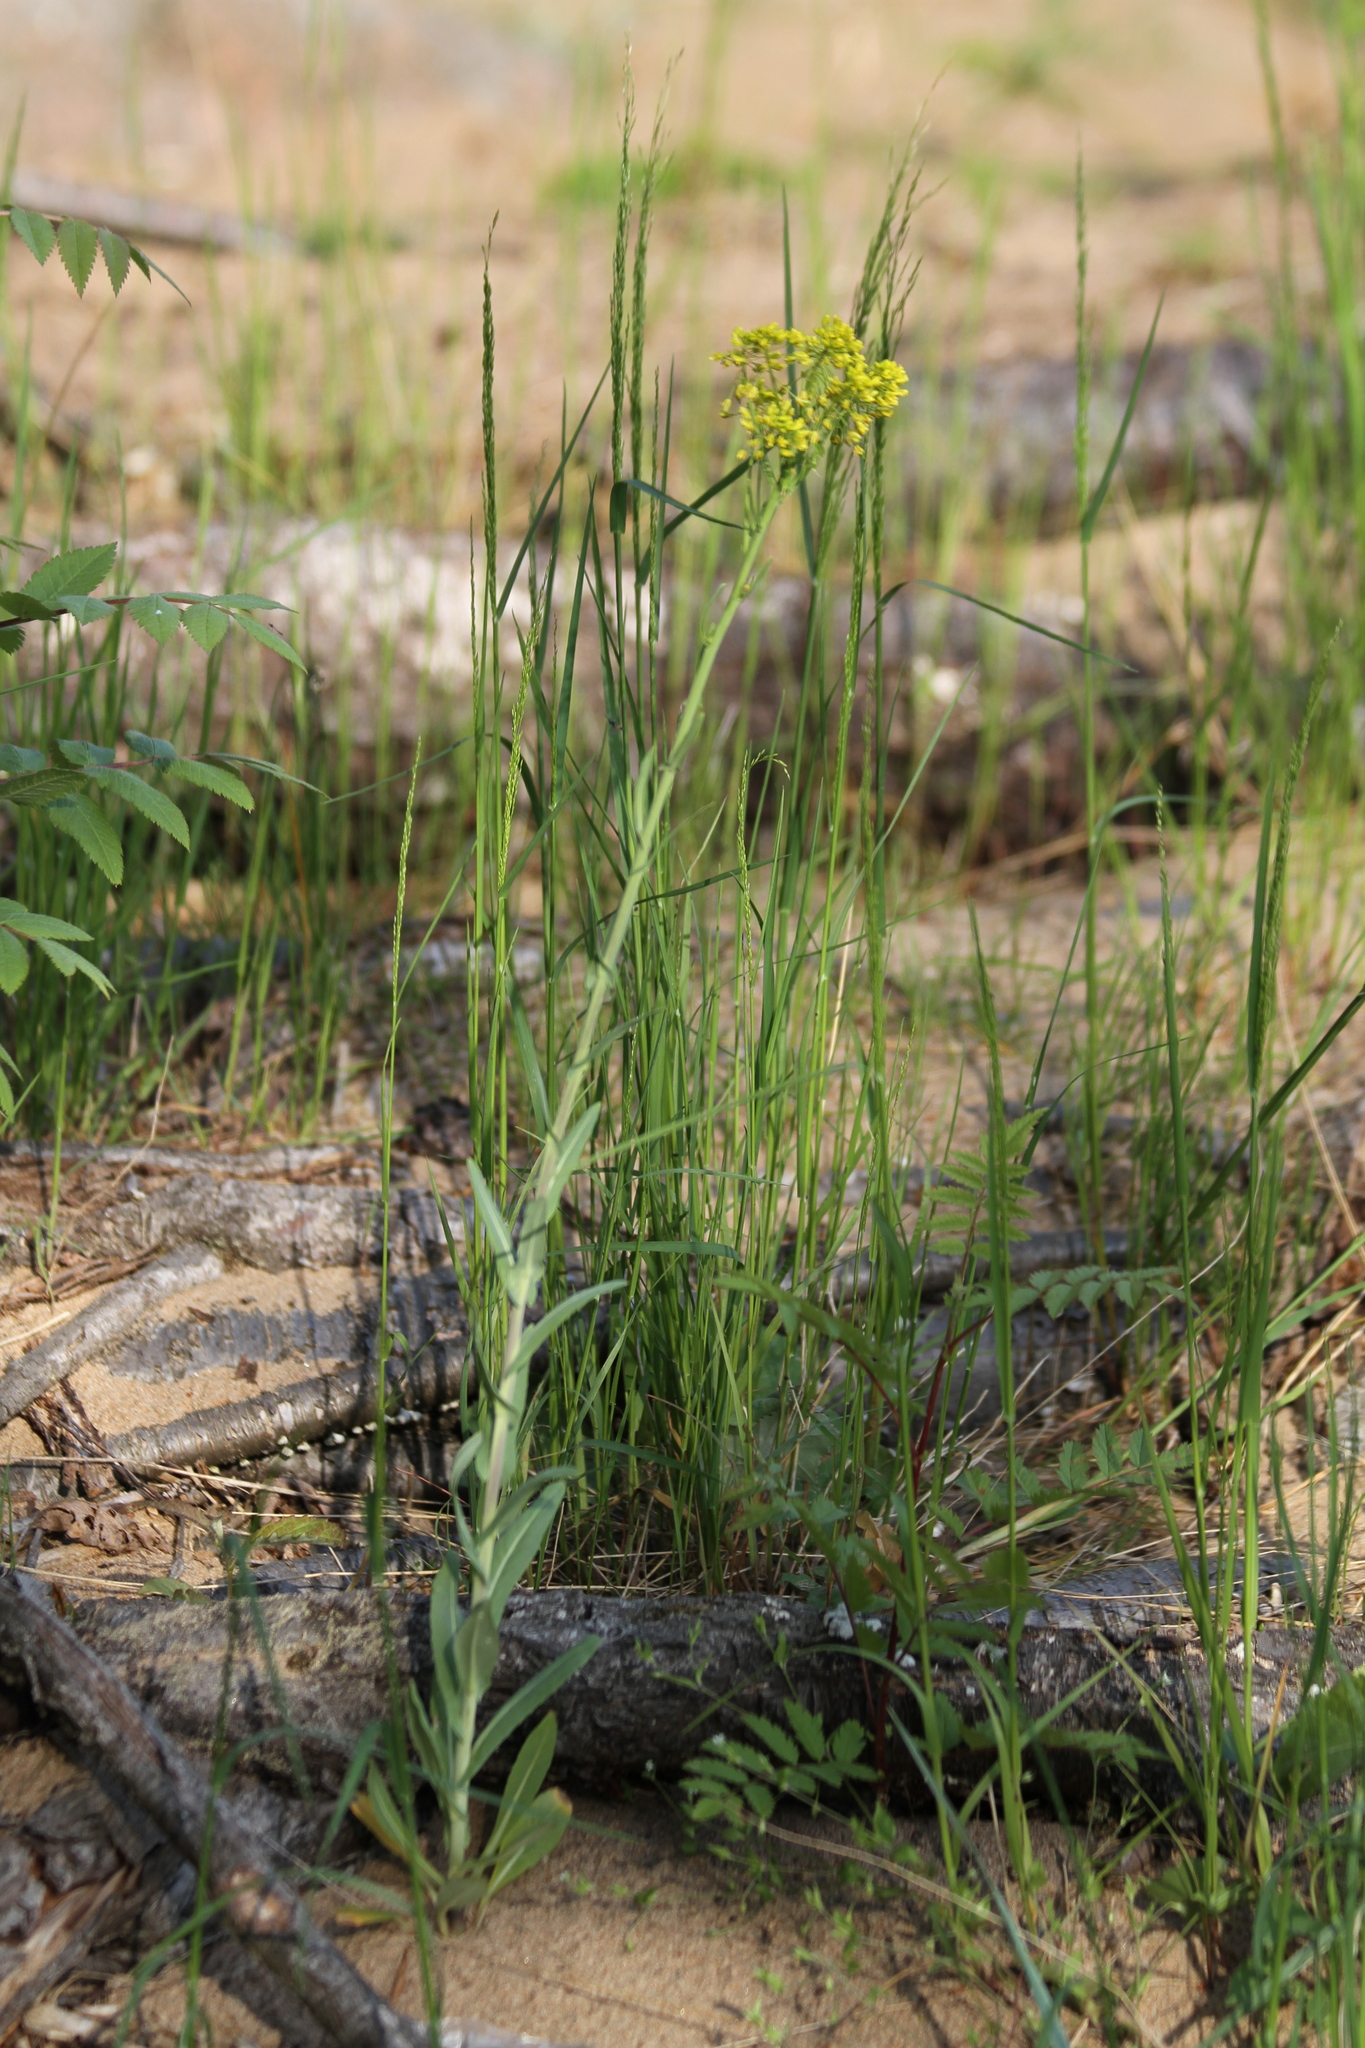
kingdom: Plantae
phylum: Tracheophyta
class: Magnoliopsida
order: Brassicales
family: Brassicaceae
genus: Isatis
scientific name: Isatis tinctoria
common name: Woad
